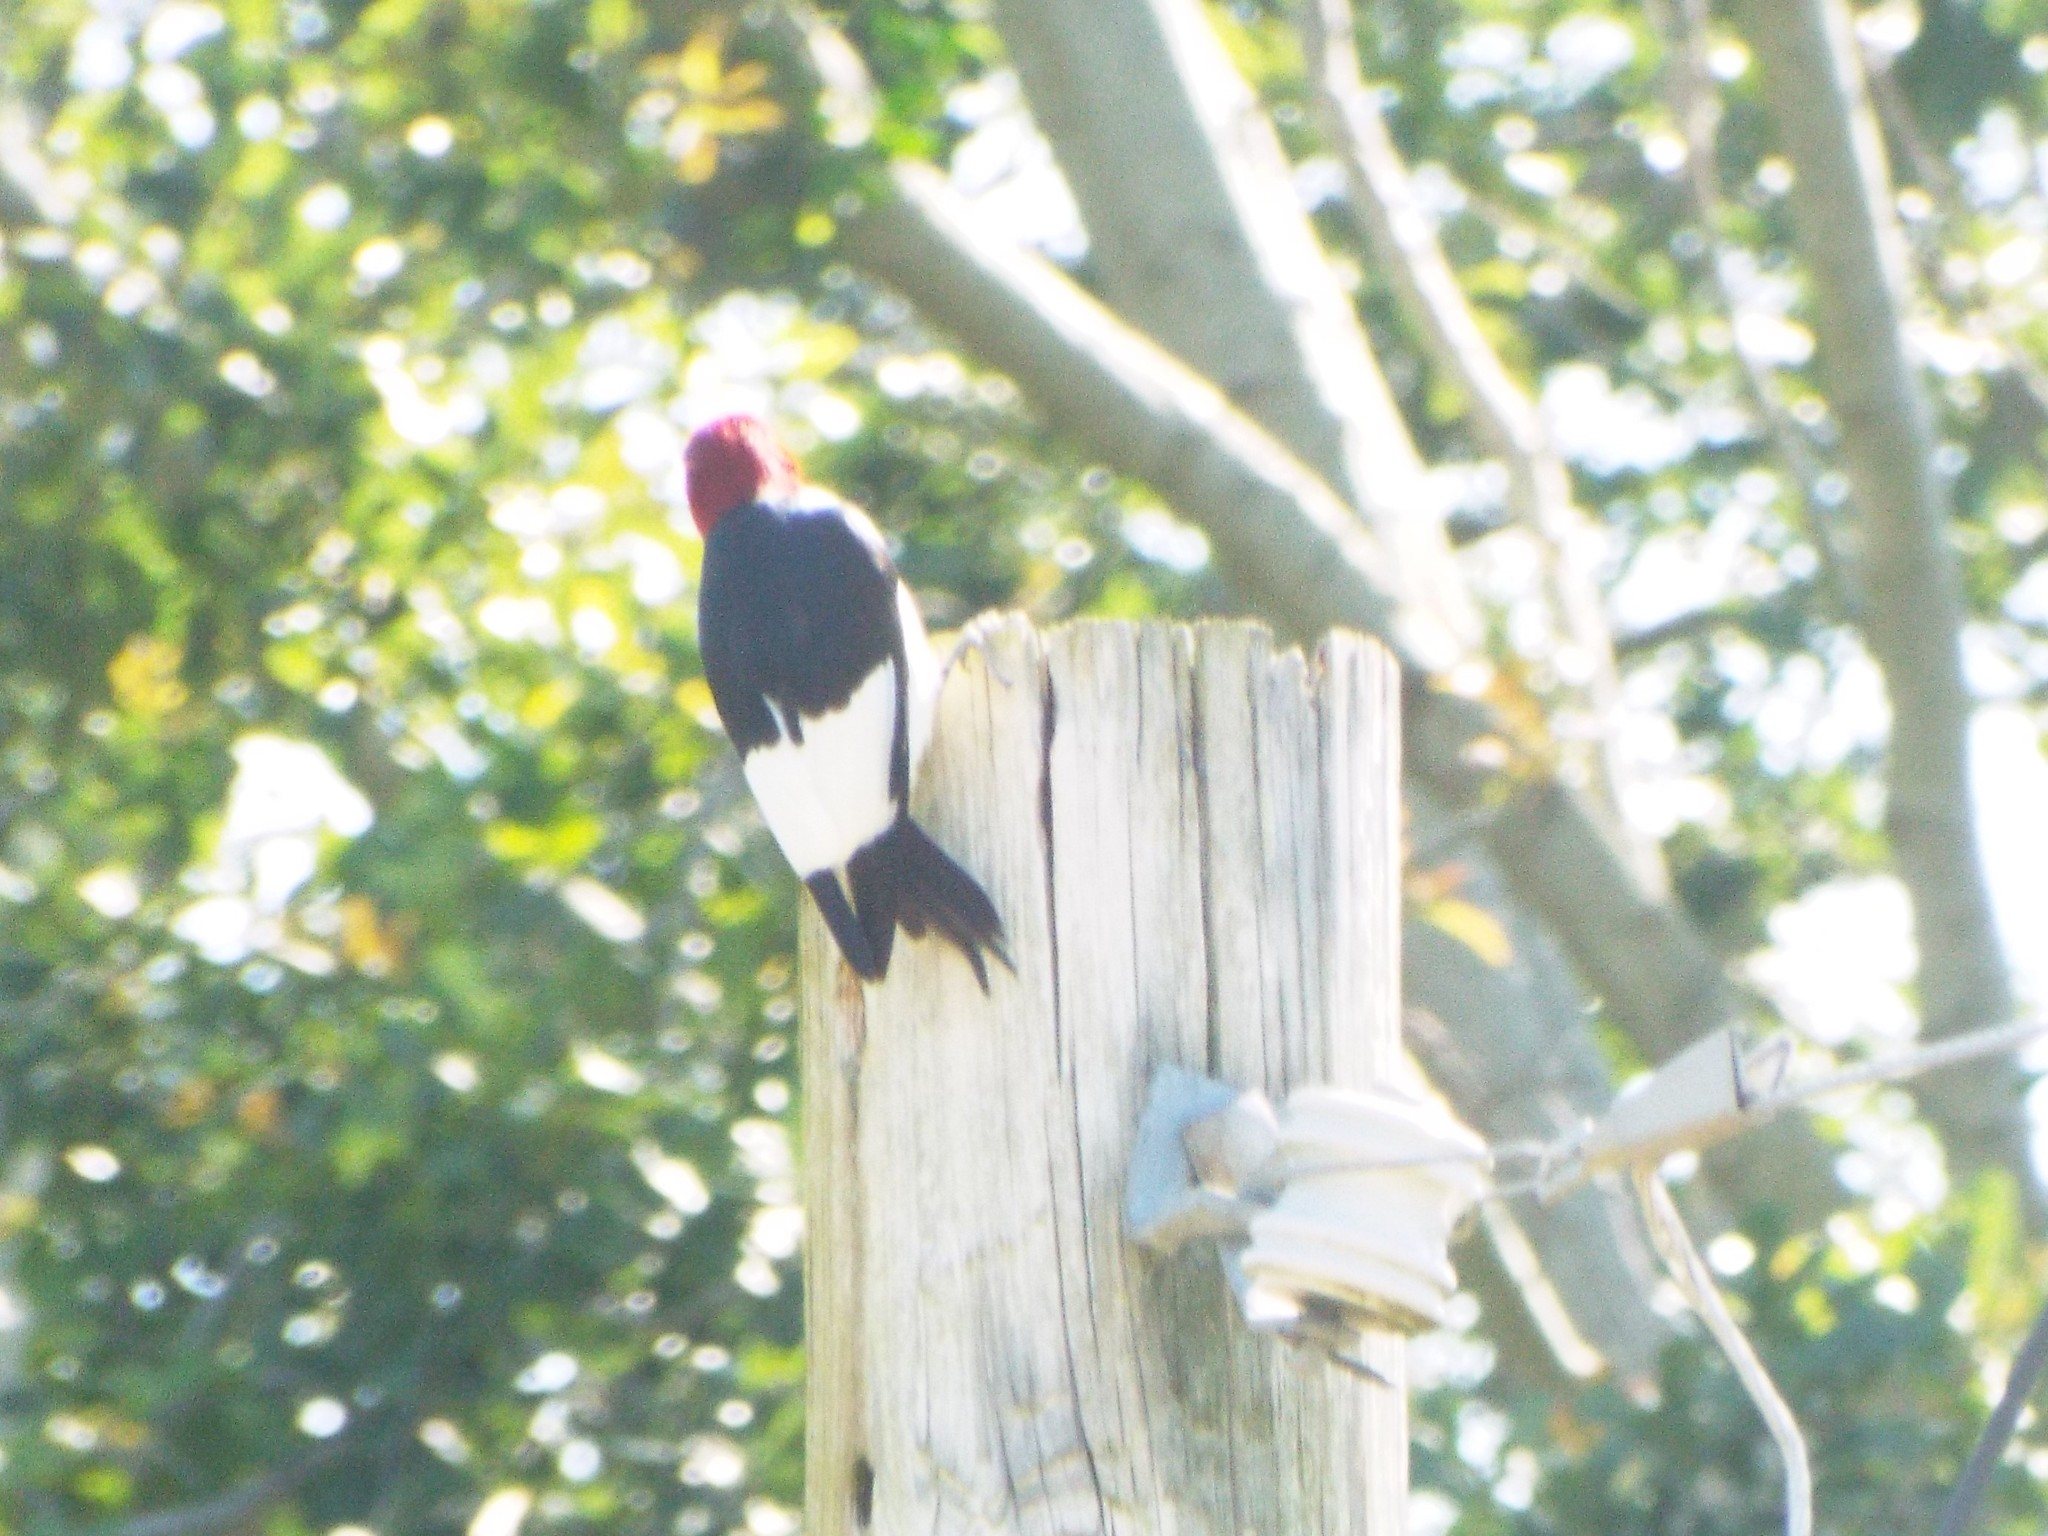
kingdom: Animalia
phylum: Chordata
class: Aves
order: Piciformes
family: Picidae
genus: Melanerpes
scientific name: Melanerpes erythrocephalus
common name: Red-headed woodpecker
